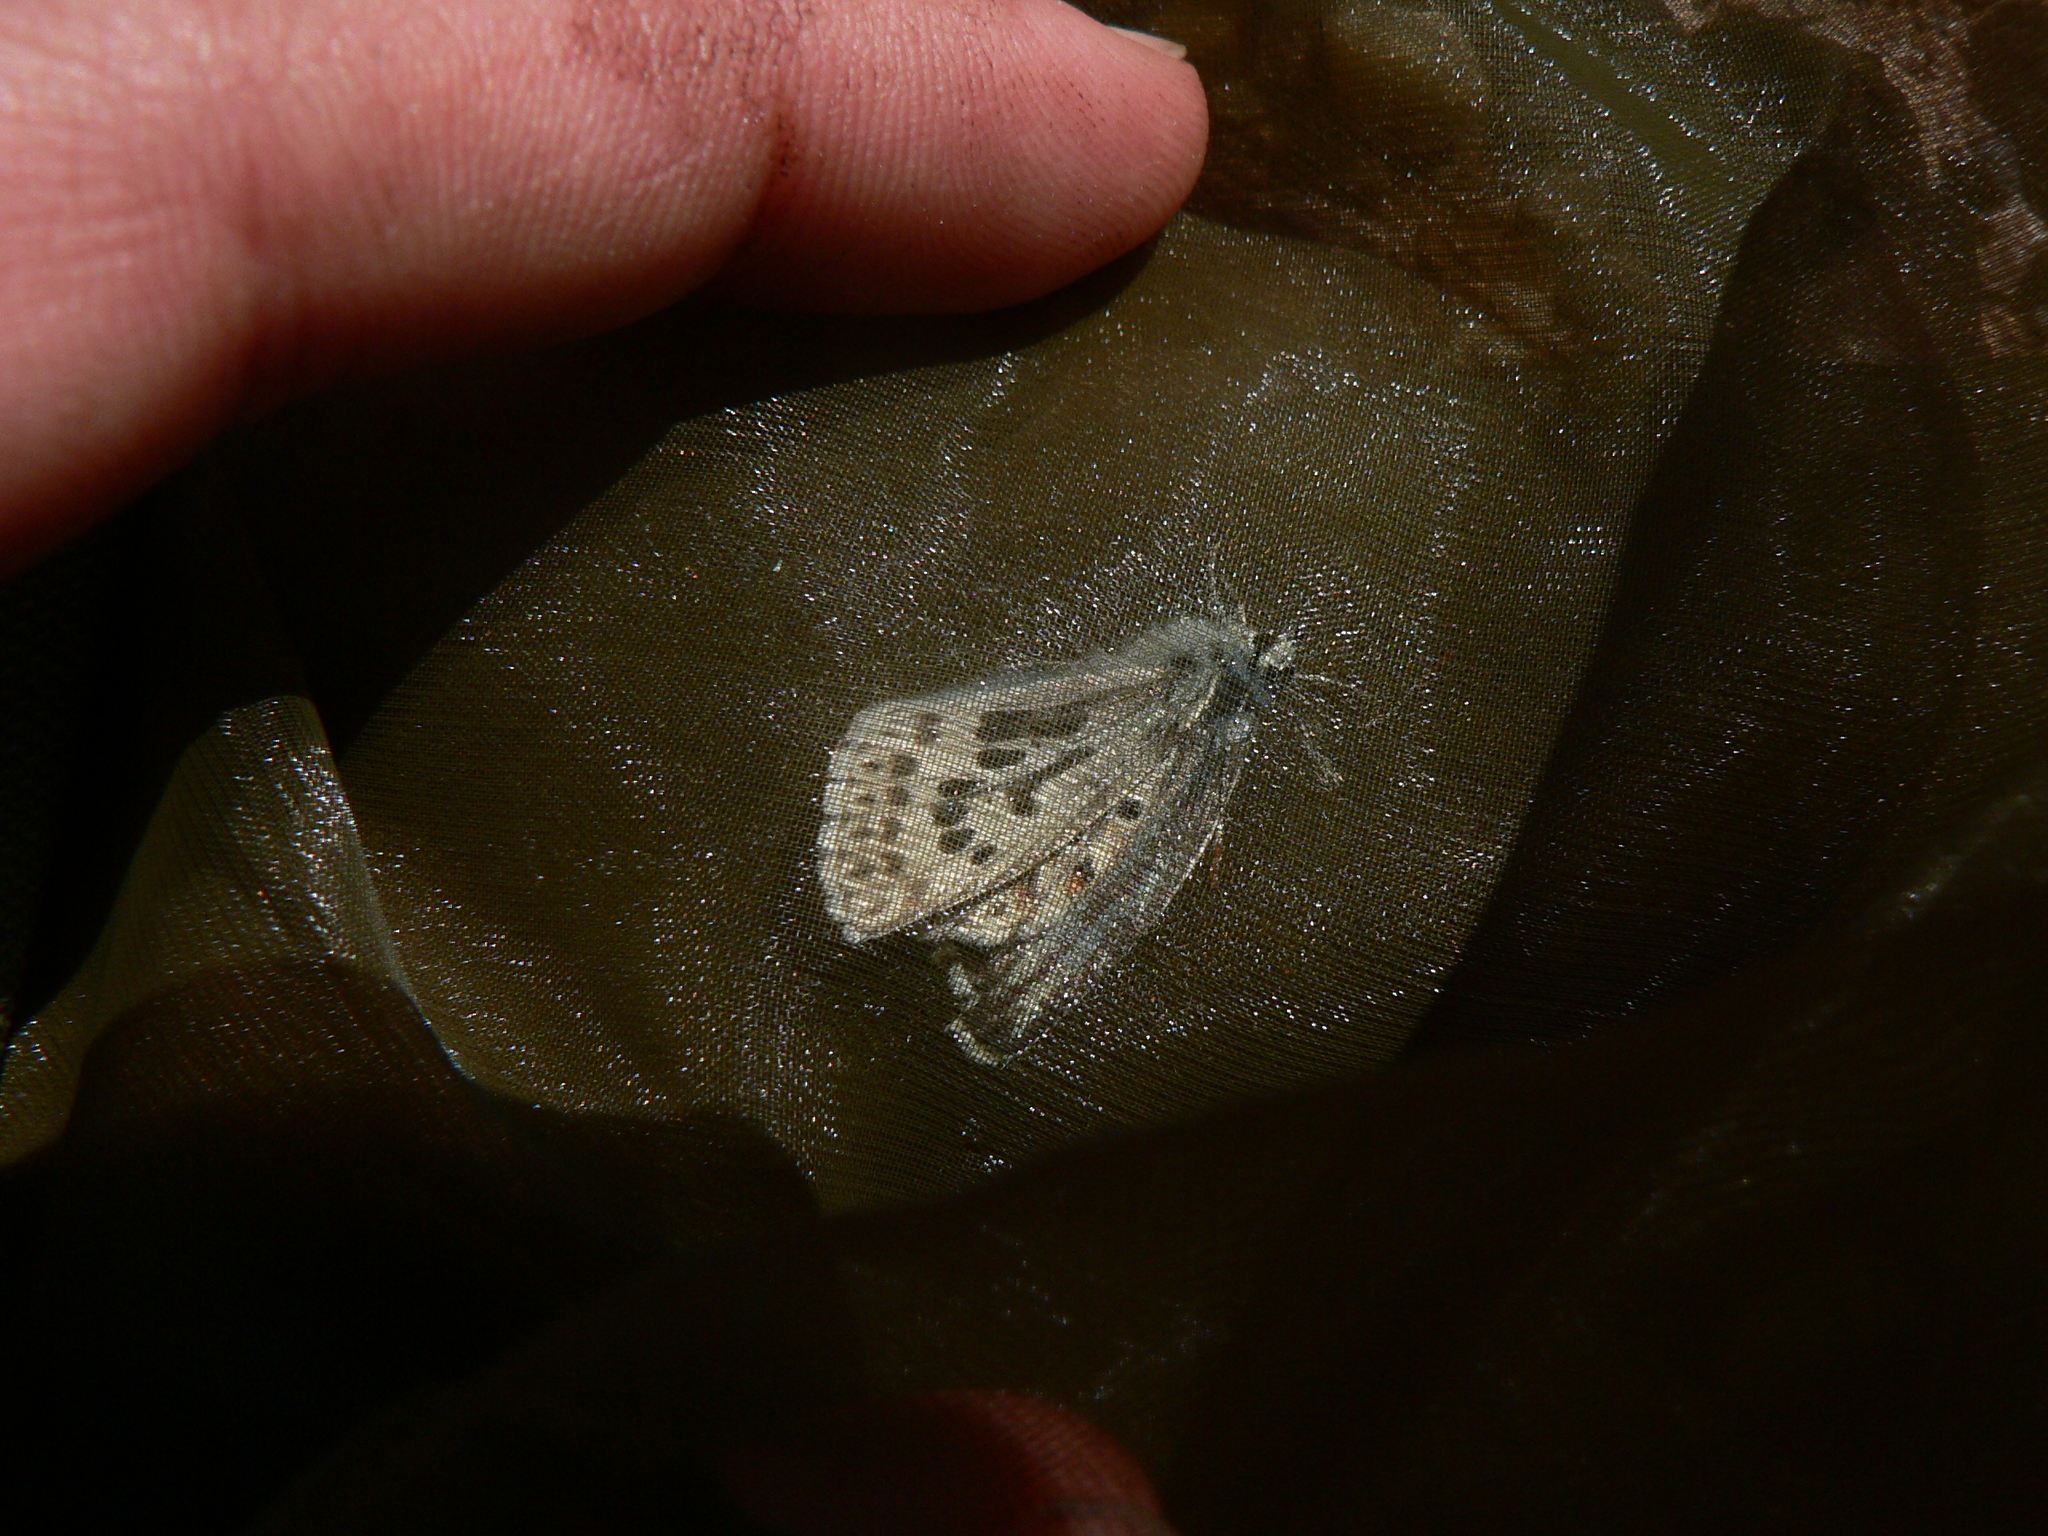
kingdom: Animalia
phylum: Arthropoda
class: Insecta
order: Lepidoptera
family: Lycaenidae
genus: Lysandra
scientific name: Lysandra hispana
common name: Provence chalkhill blue
